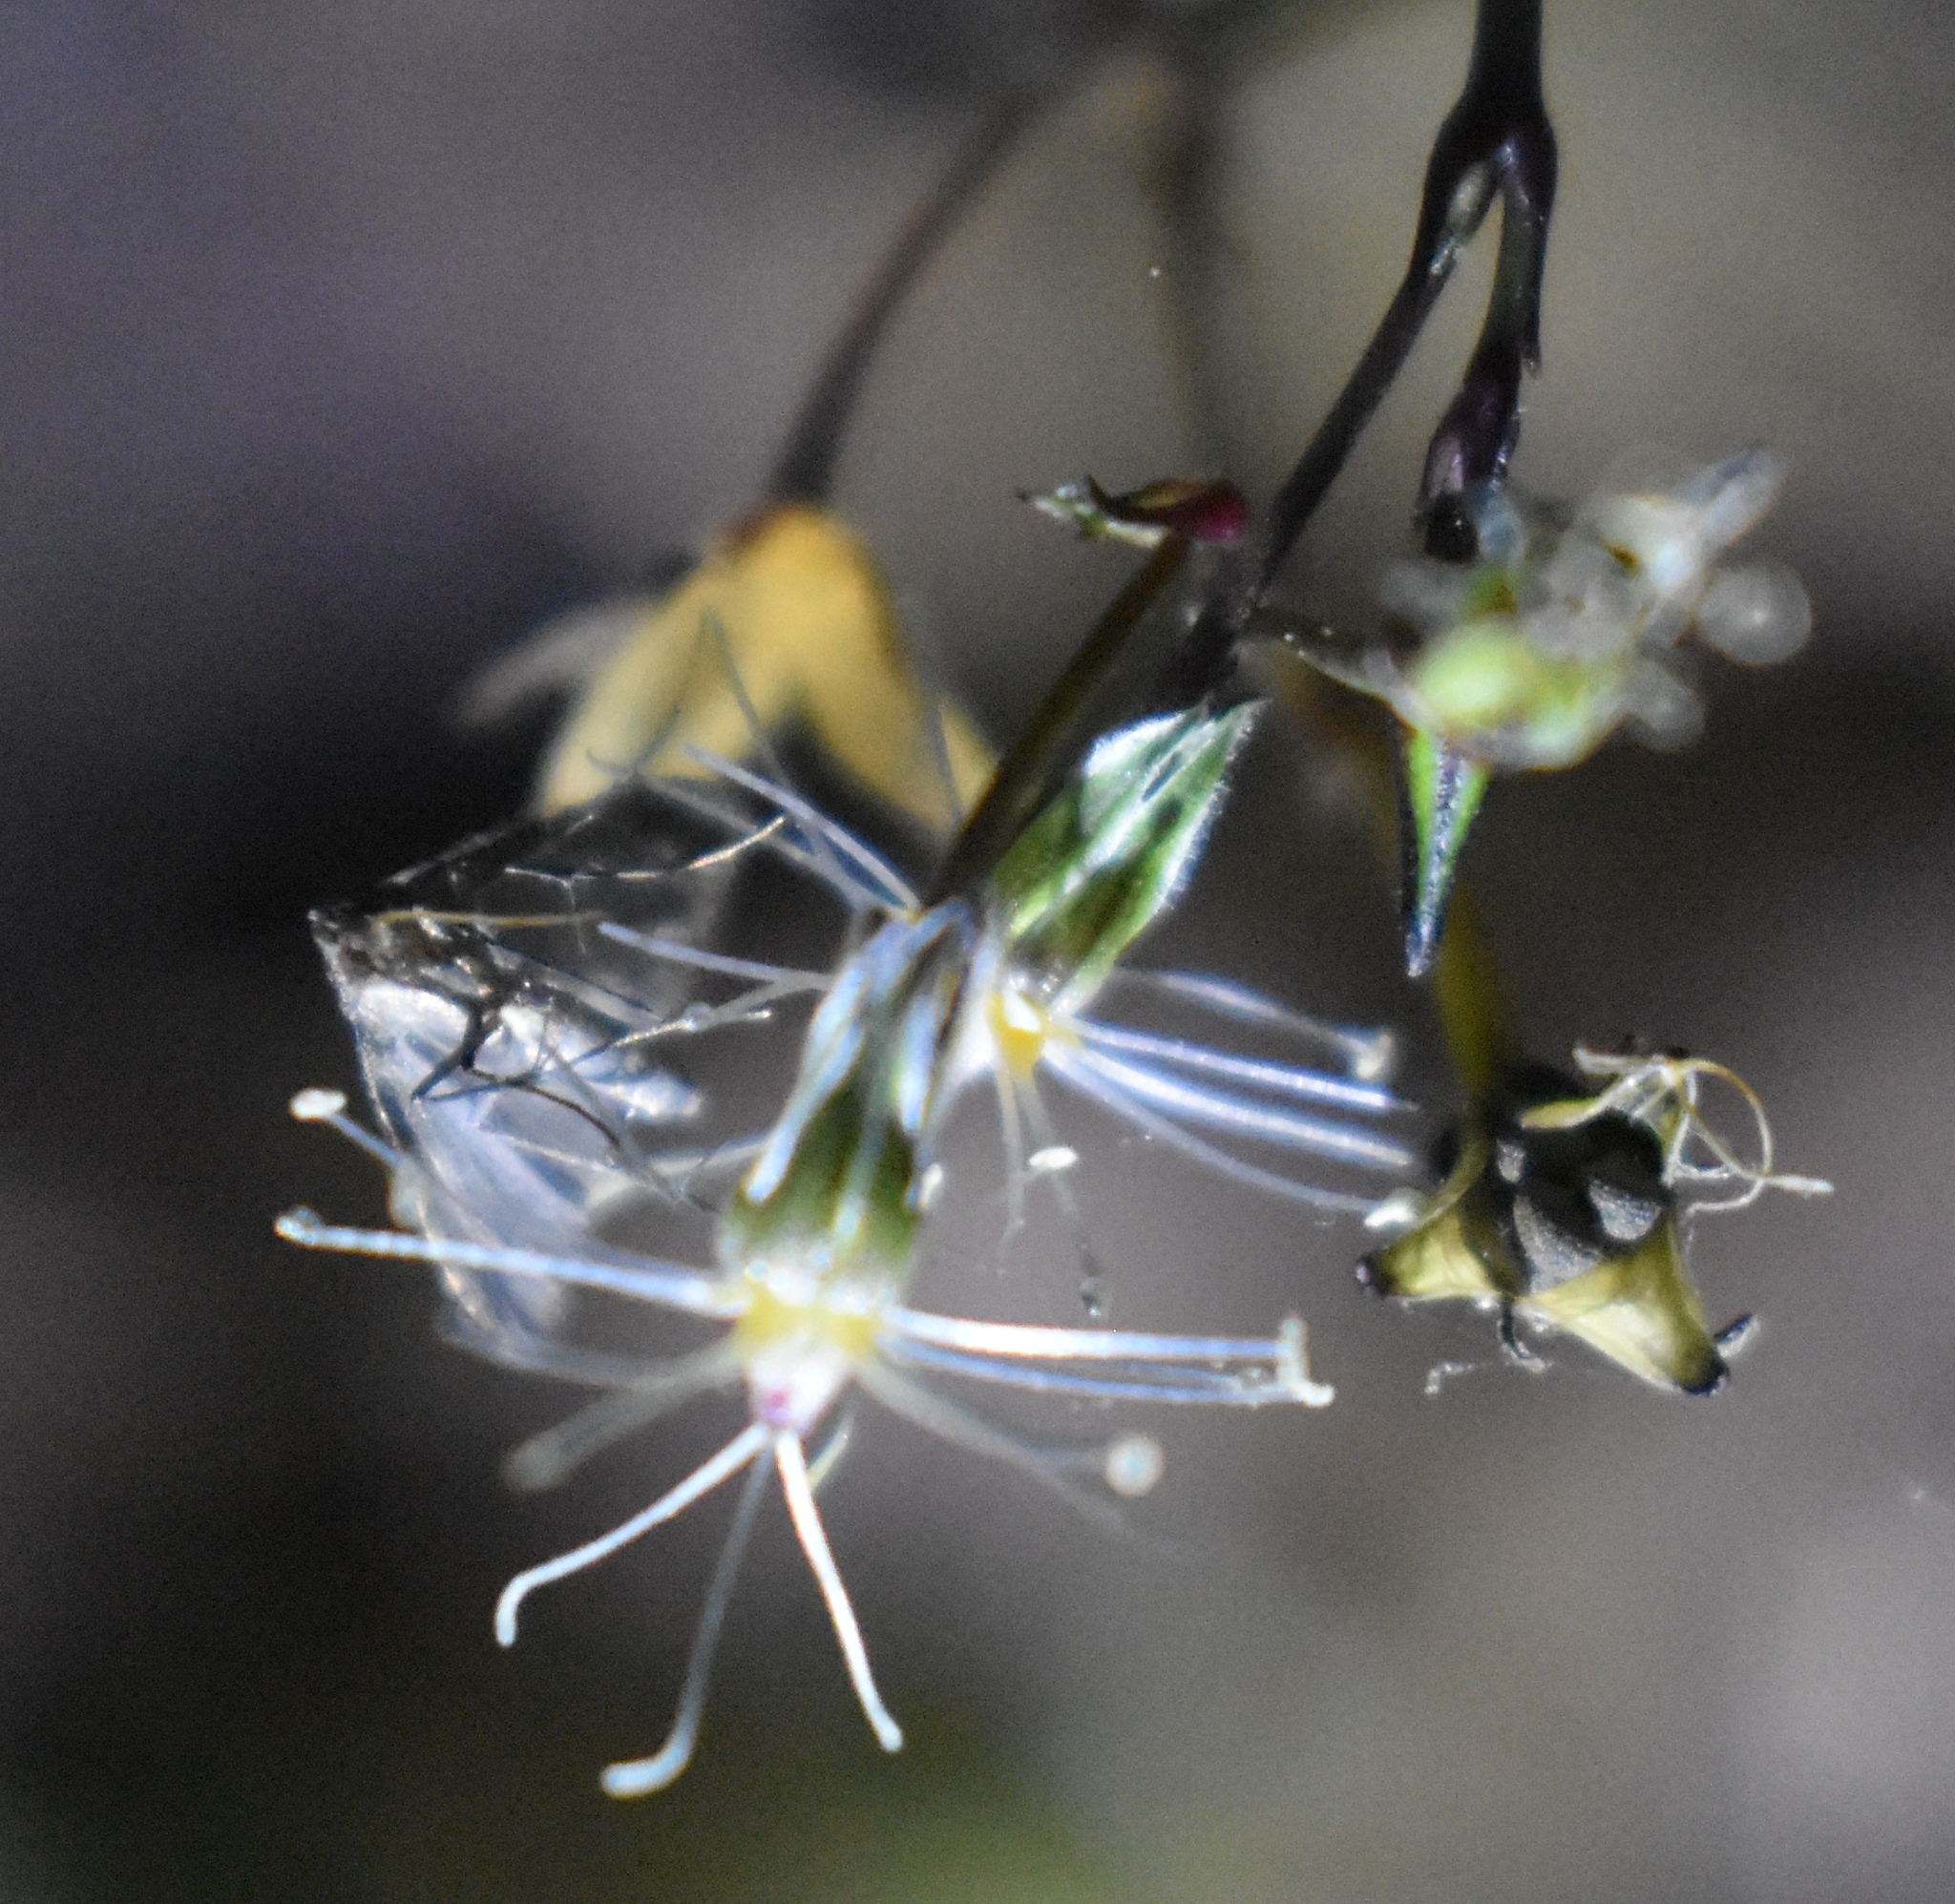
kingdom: Animalia
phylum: Arthropoda
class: Insecta
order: Lepidoptera
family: Erebidae
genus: Pseudoschrankia
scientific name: Pseudoschrankia brevipalpis
